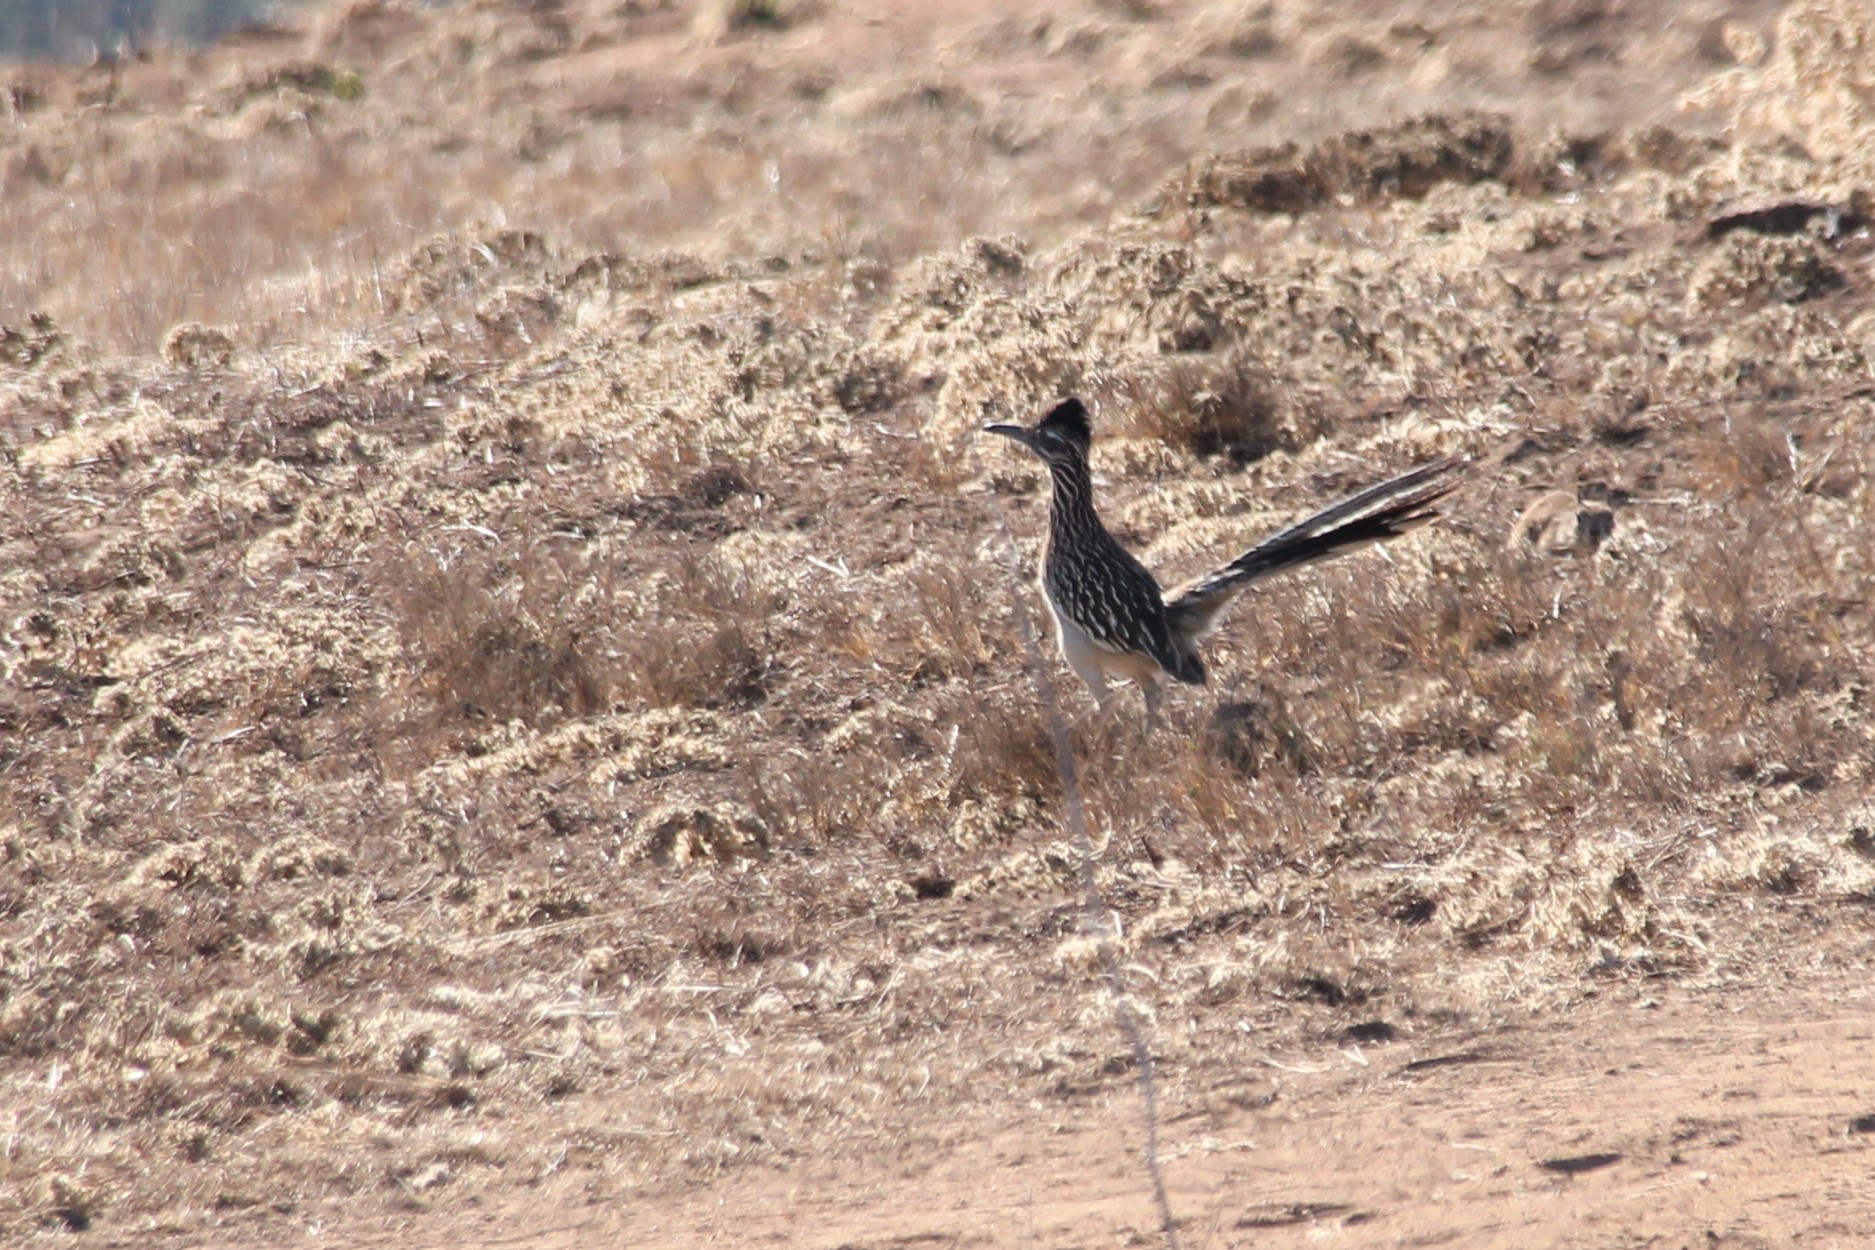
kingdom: Animalia
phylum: Chordata
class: Aves
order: Cuculiformes
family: Cuculidae
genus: Geococcyx
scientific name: Geococcyx californianus
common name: Greater roadrunner
